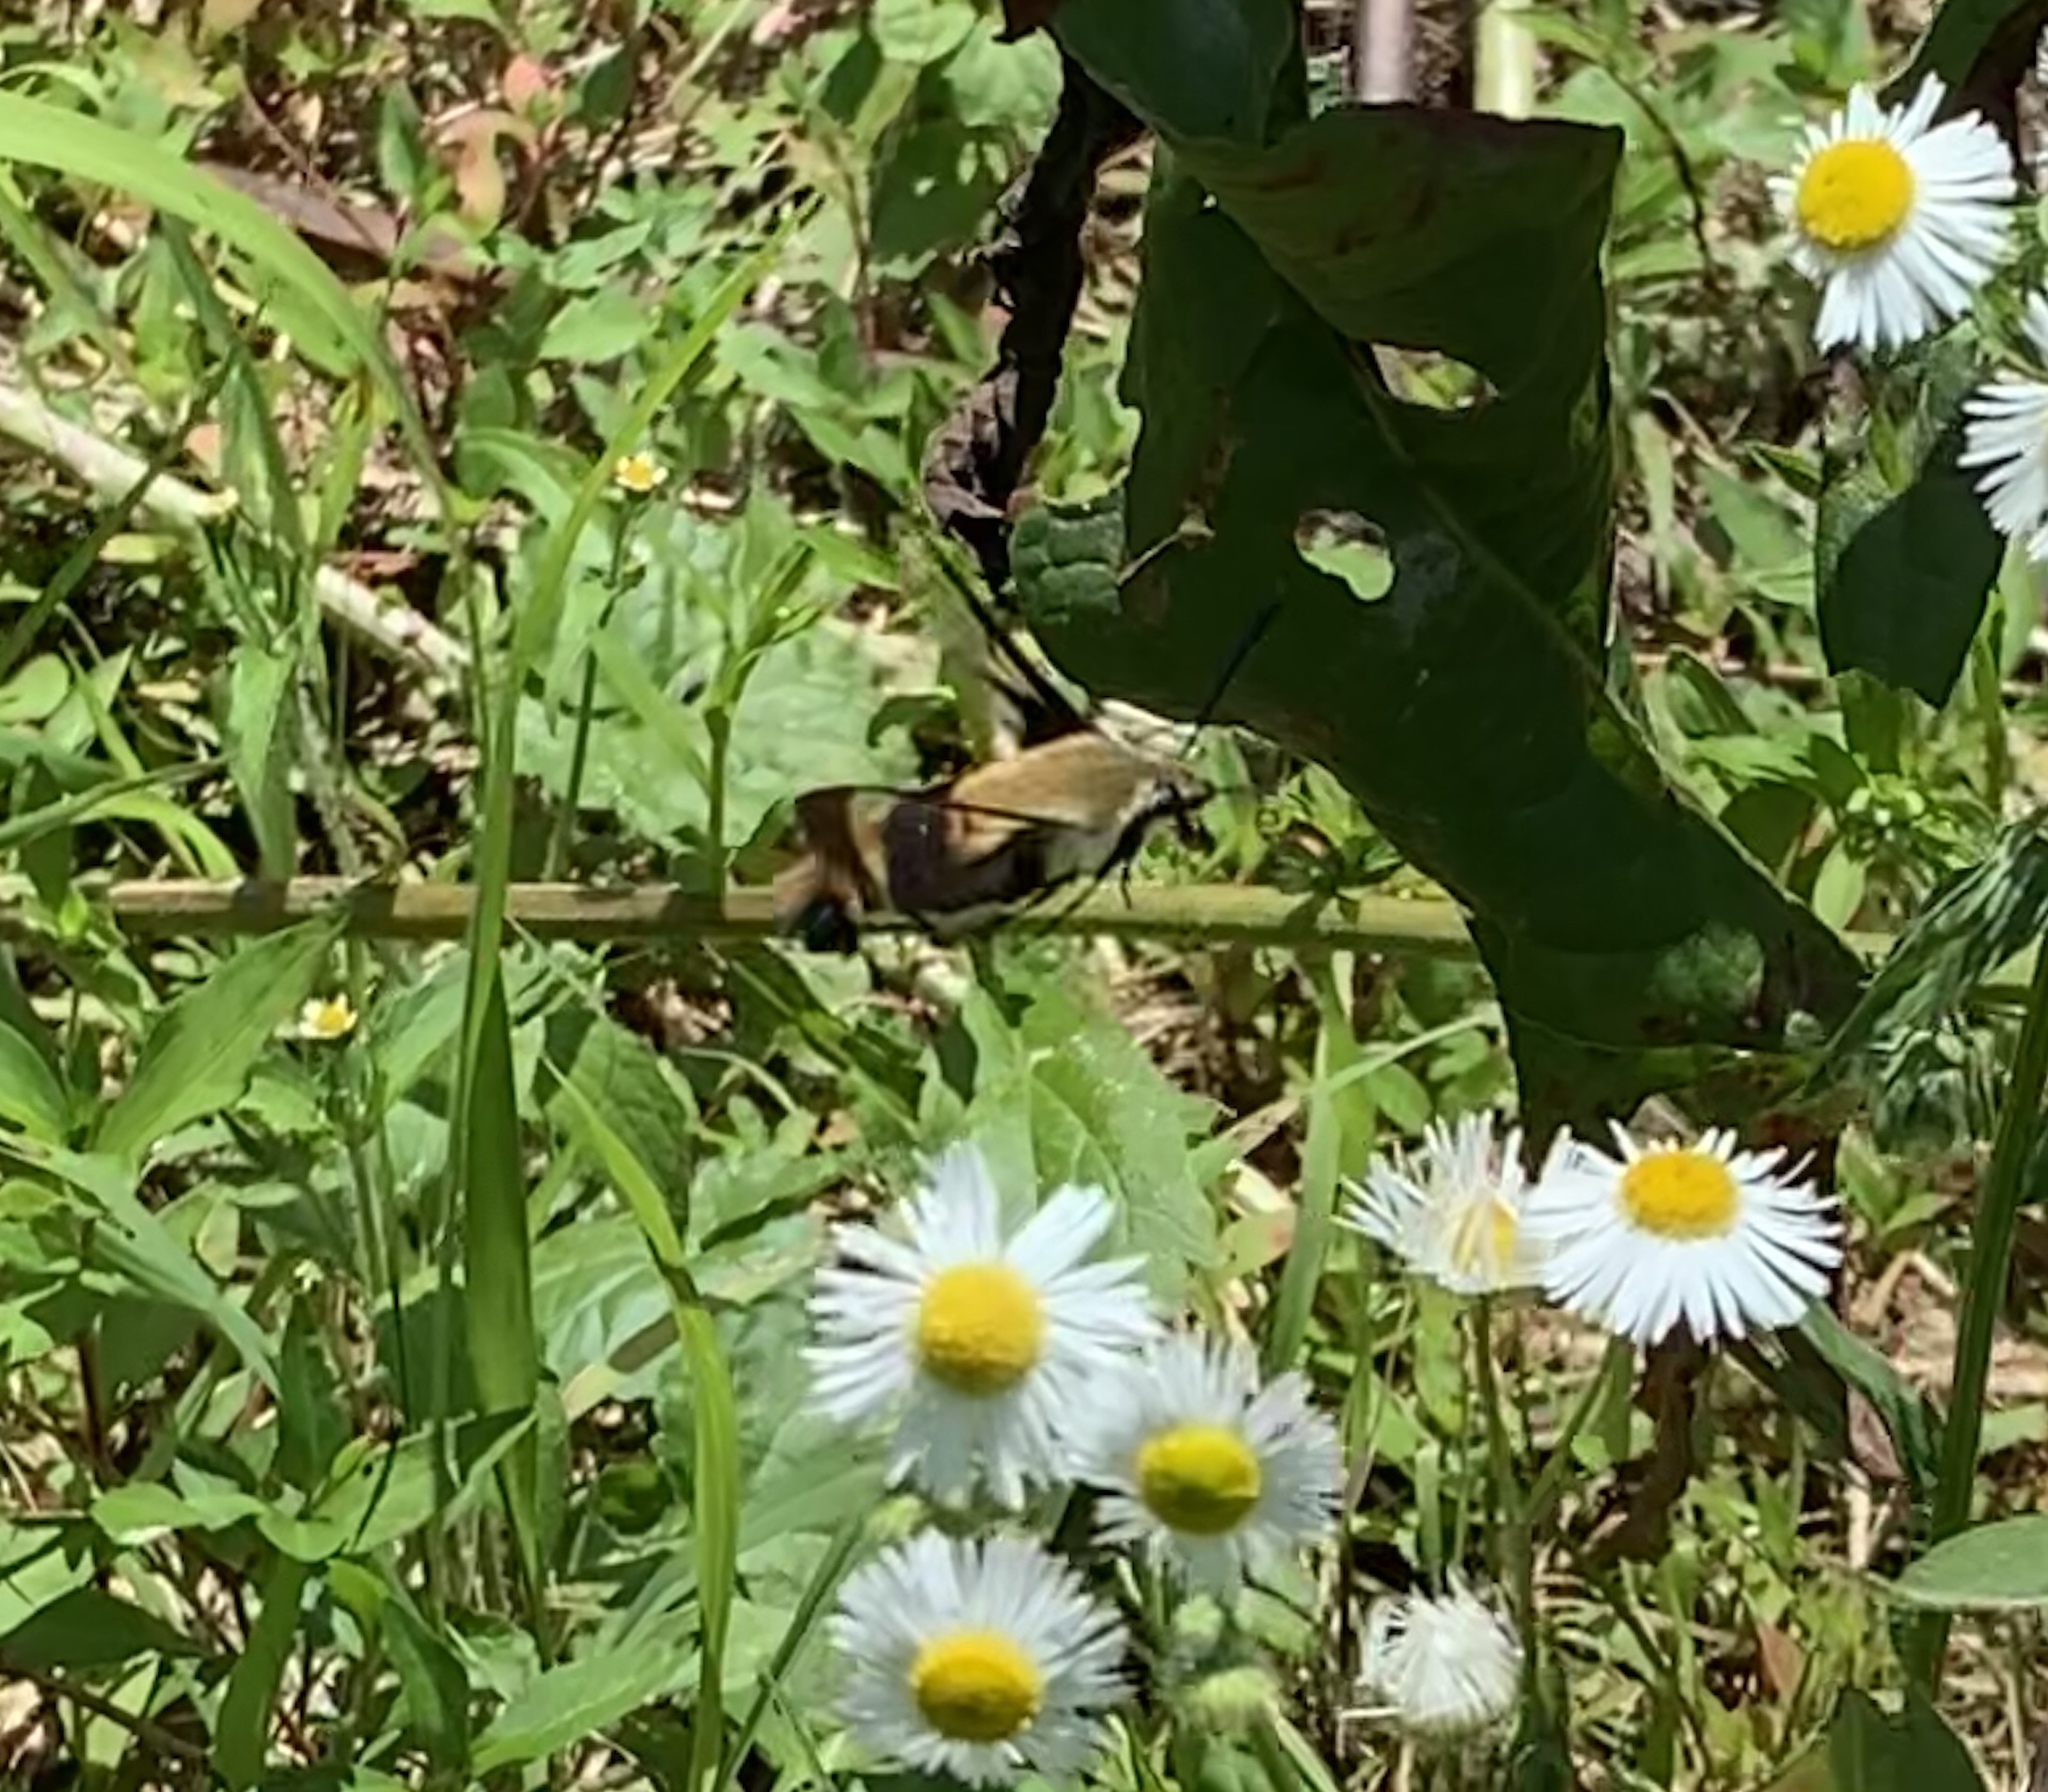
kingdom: Animalia
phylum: Arthropoda
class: Insecta
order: Lepidoptera
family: Sphingidae
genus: Hemaris
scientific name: Hemaris diffinis
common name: Bumblebee moth
